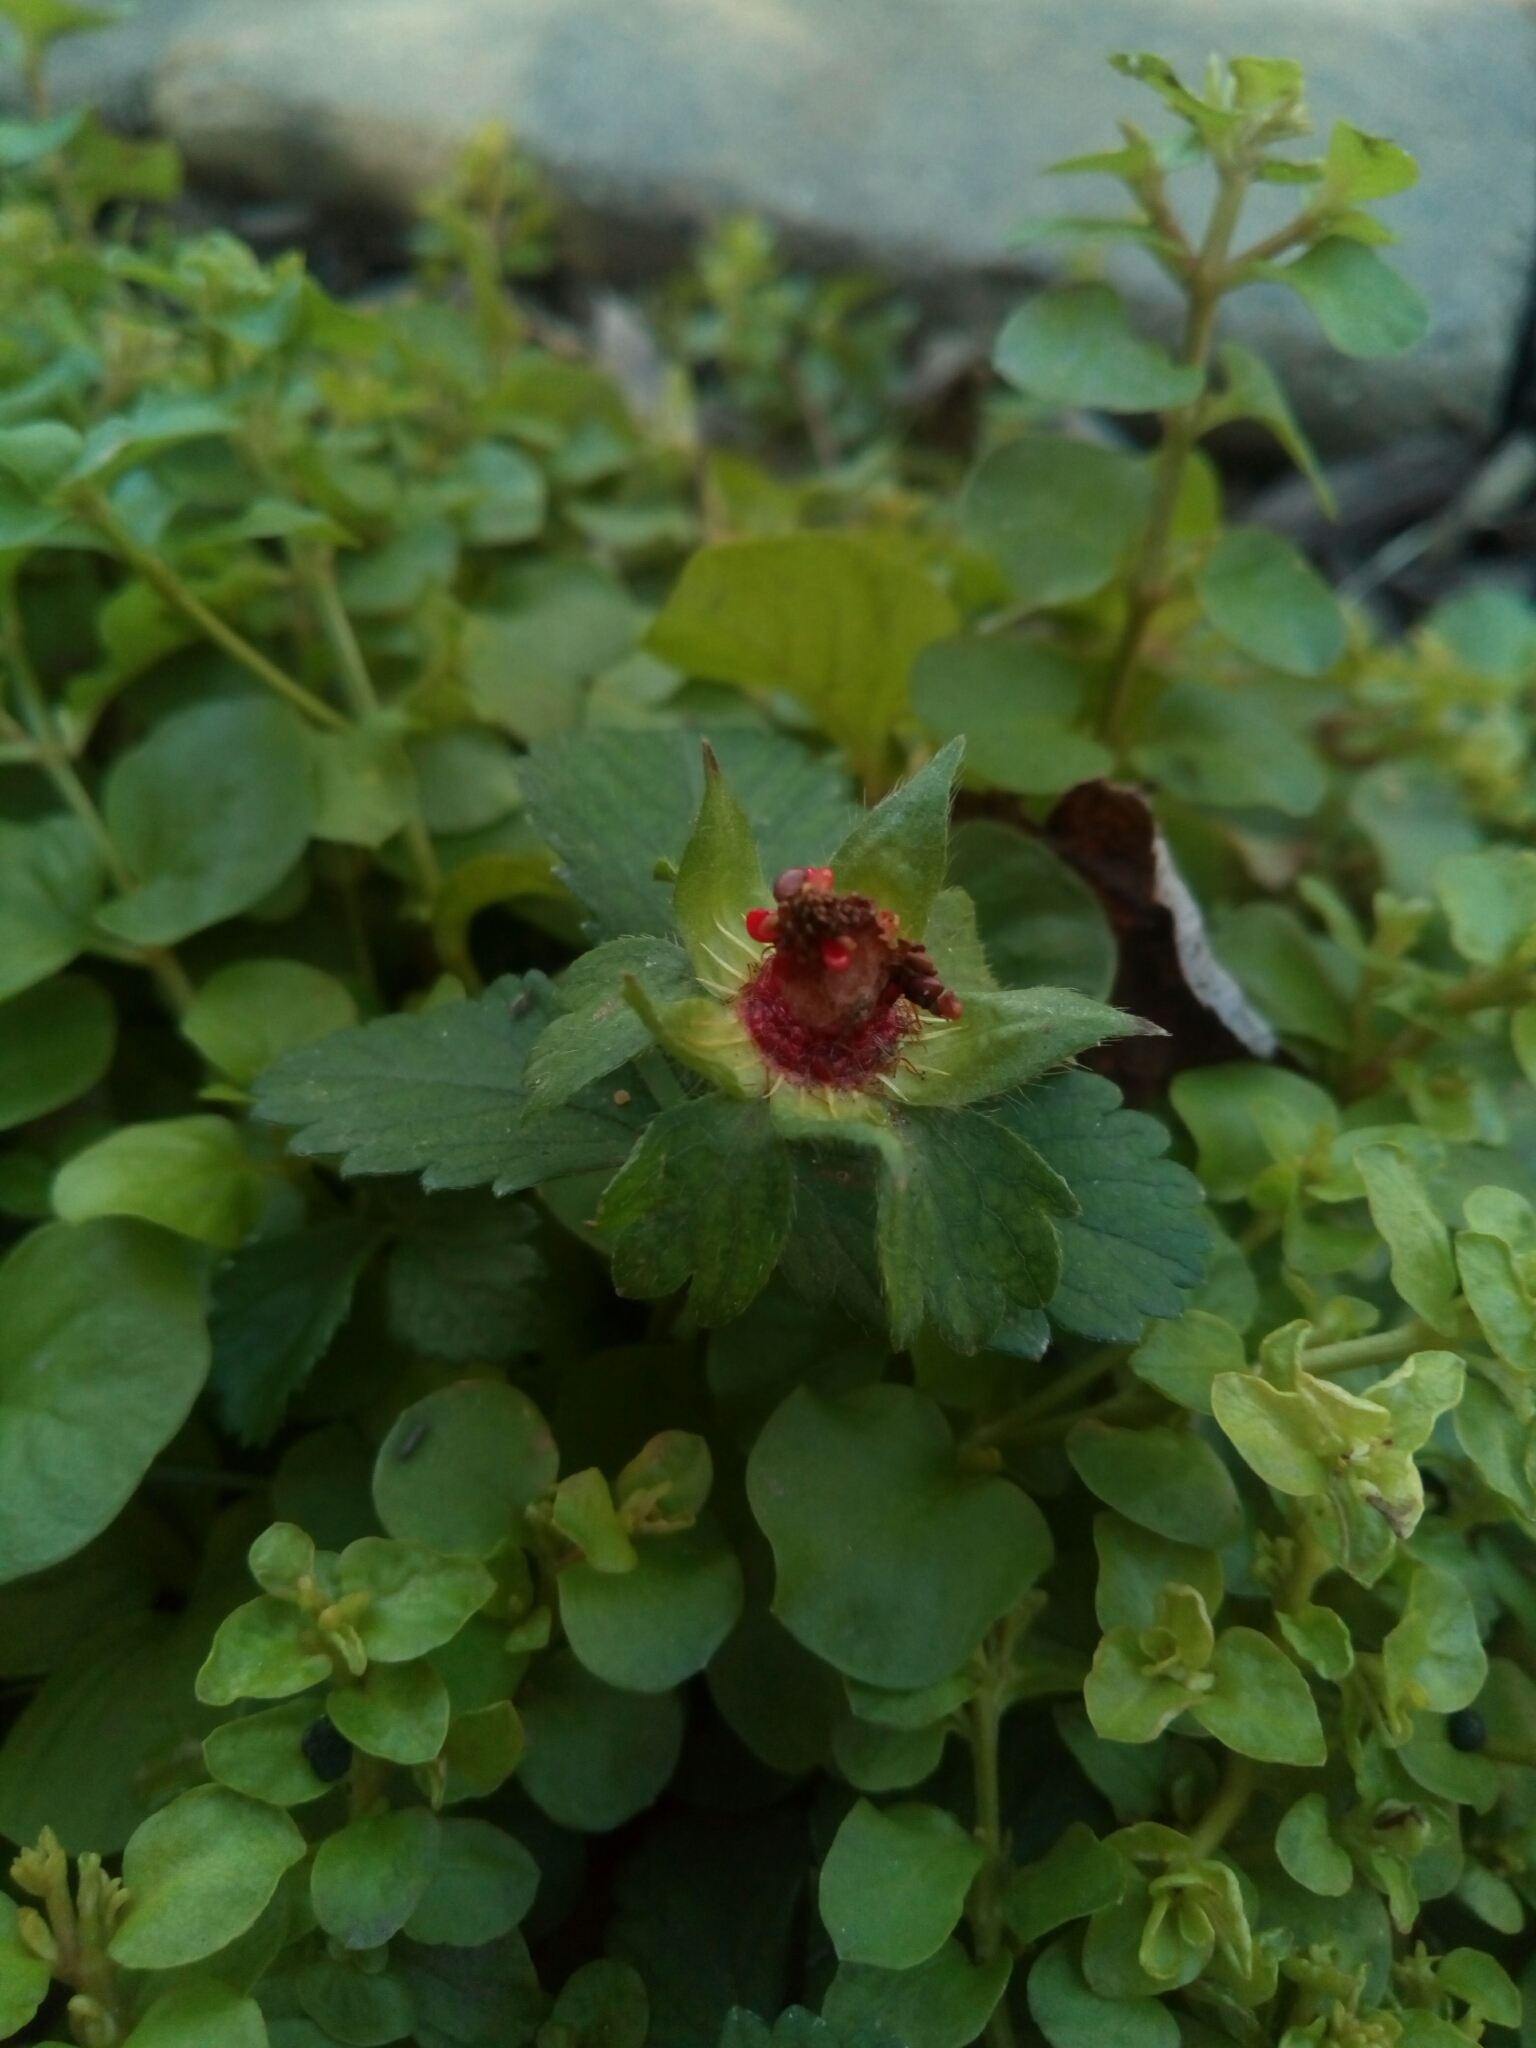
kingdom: Plantae
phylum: Tracheophyta
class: Magnoliopsida
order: Rosales
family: Rosaceae
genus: Potentilla
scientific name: Potentilla indica
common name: Yellow-flowered strawberry
